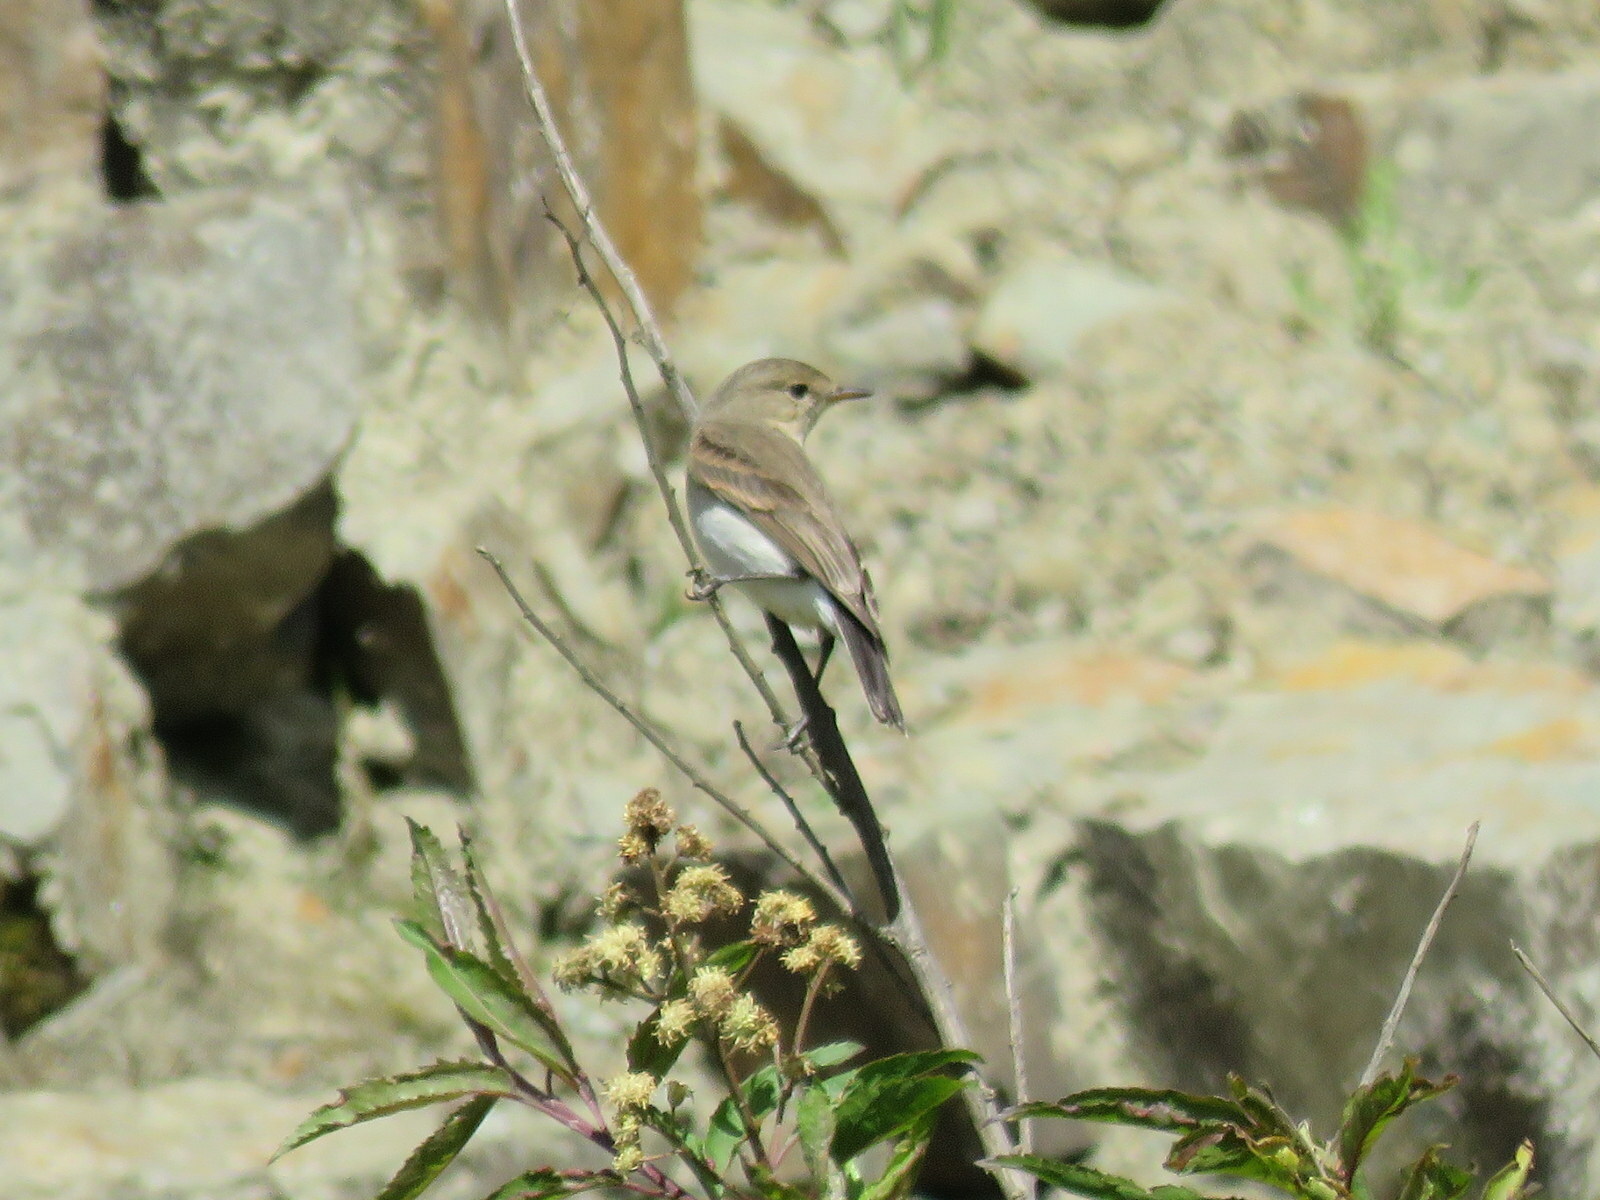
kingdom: Animalia
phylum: Chordata
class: Aves
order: Passeriformes
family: Tyrannidae
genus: Muscisaxicola
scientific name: Muscisaxicola maculirostris
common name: Spot-billed ground tyrant
